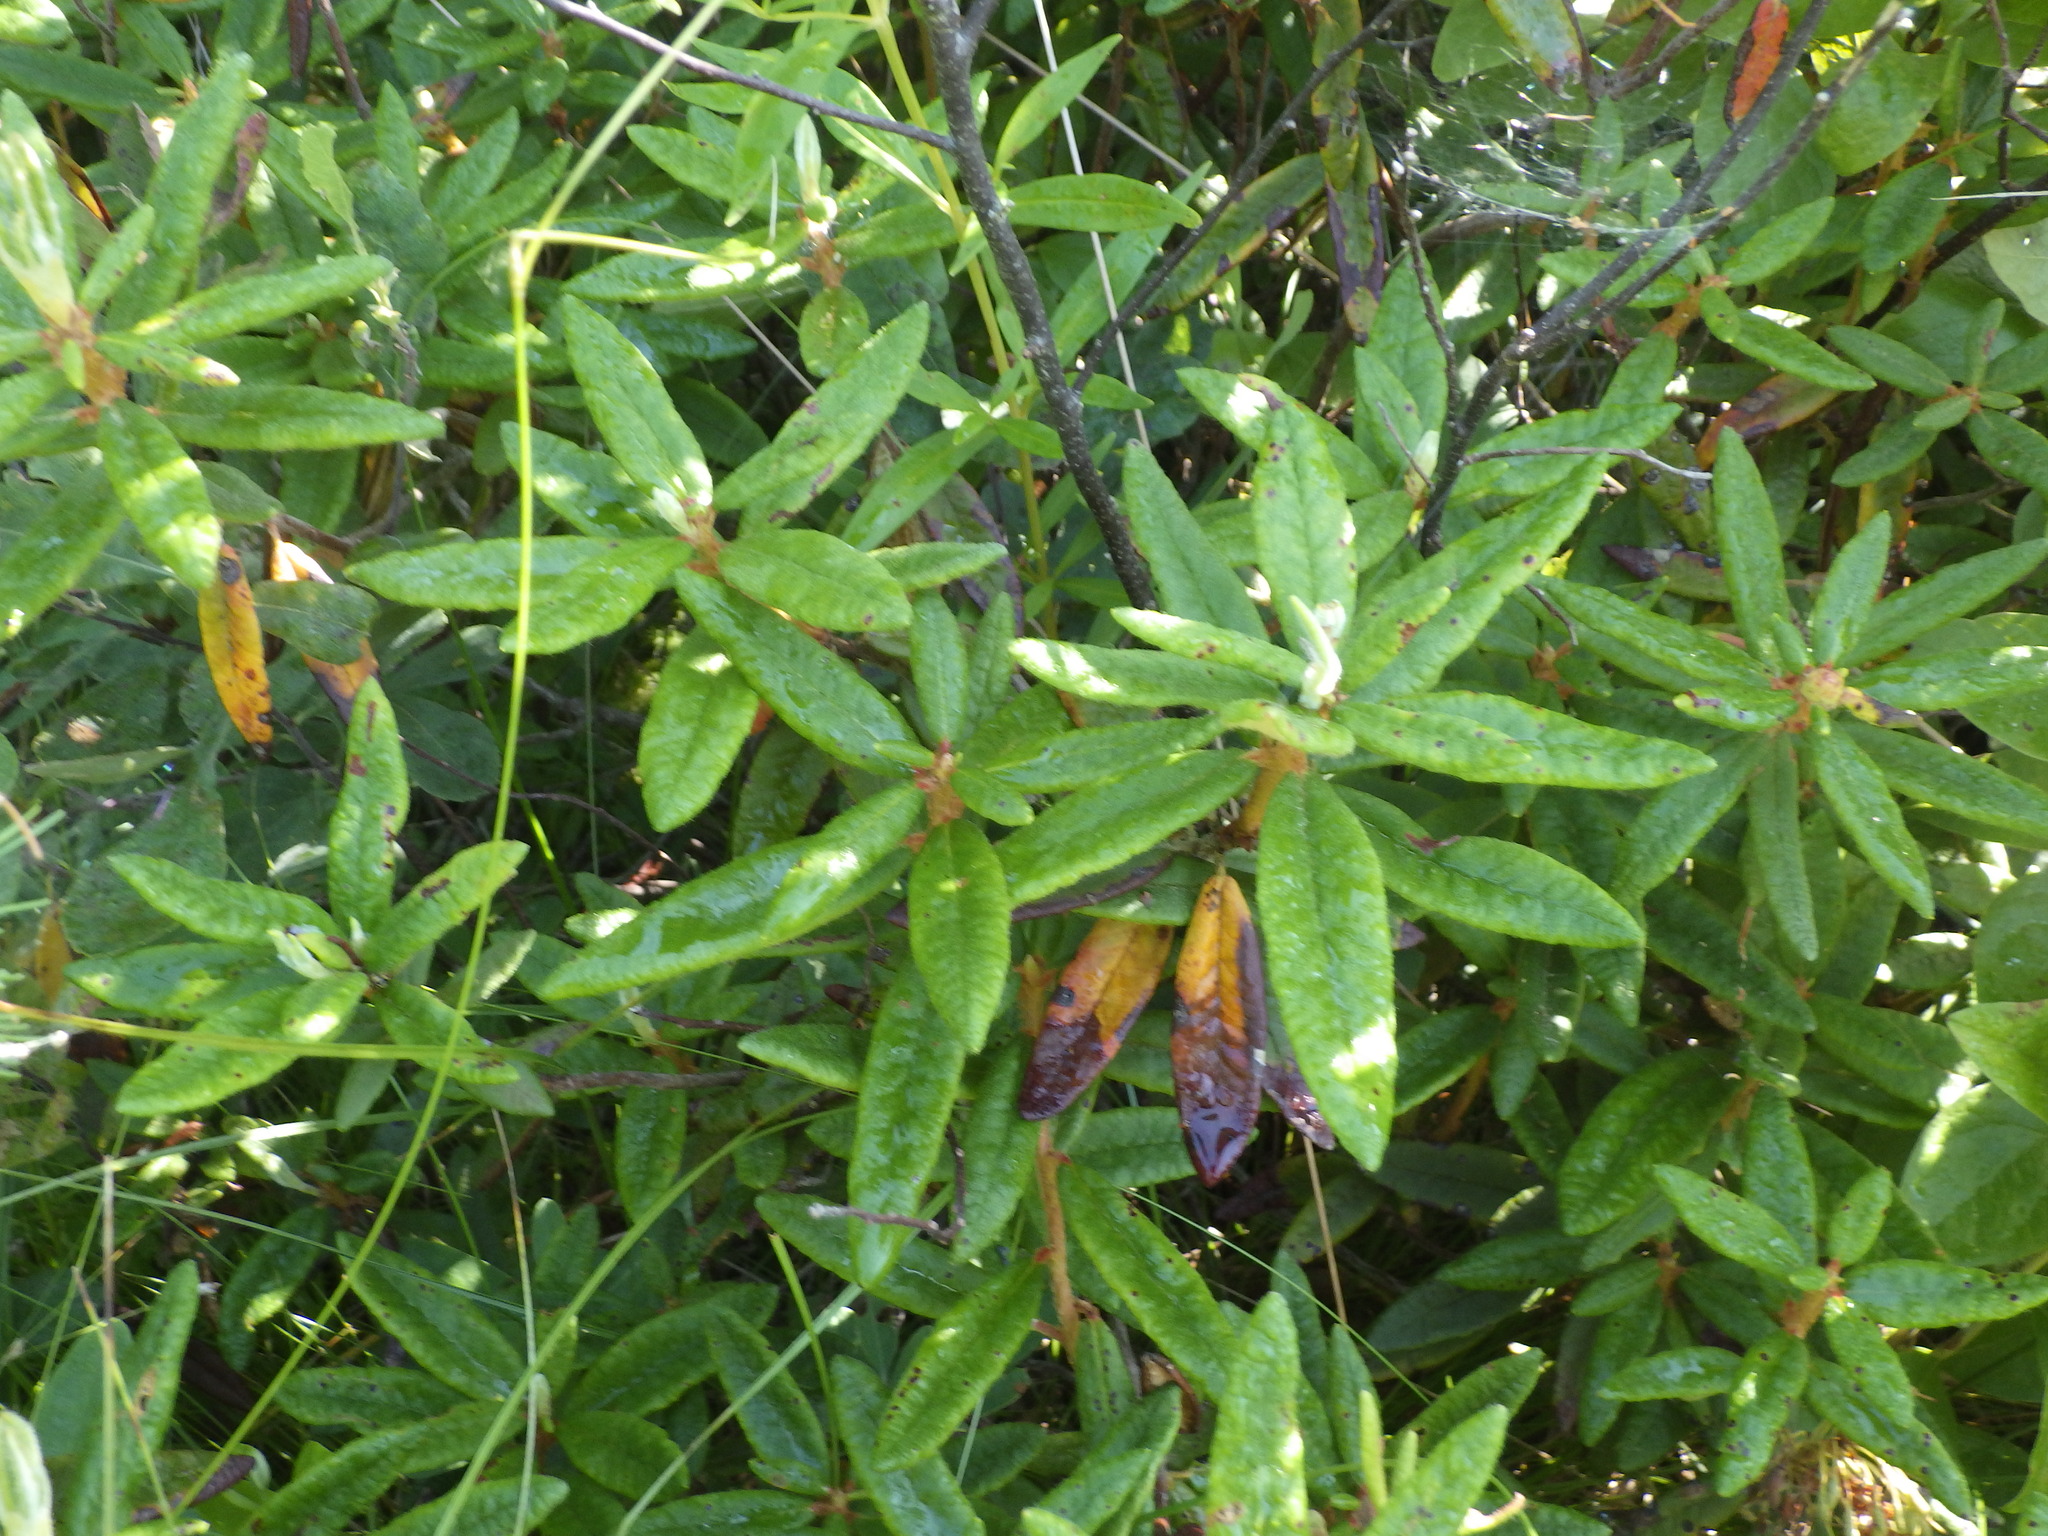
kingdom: Plantae
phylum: Tracheophyta
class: Magnoliopsida
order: Ericales
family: Ericaceae
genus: Rhododendron
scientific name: Rhododendron groenlandicum
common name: Bog labrador tea
